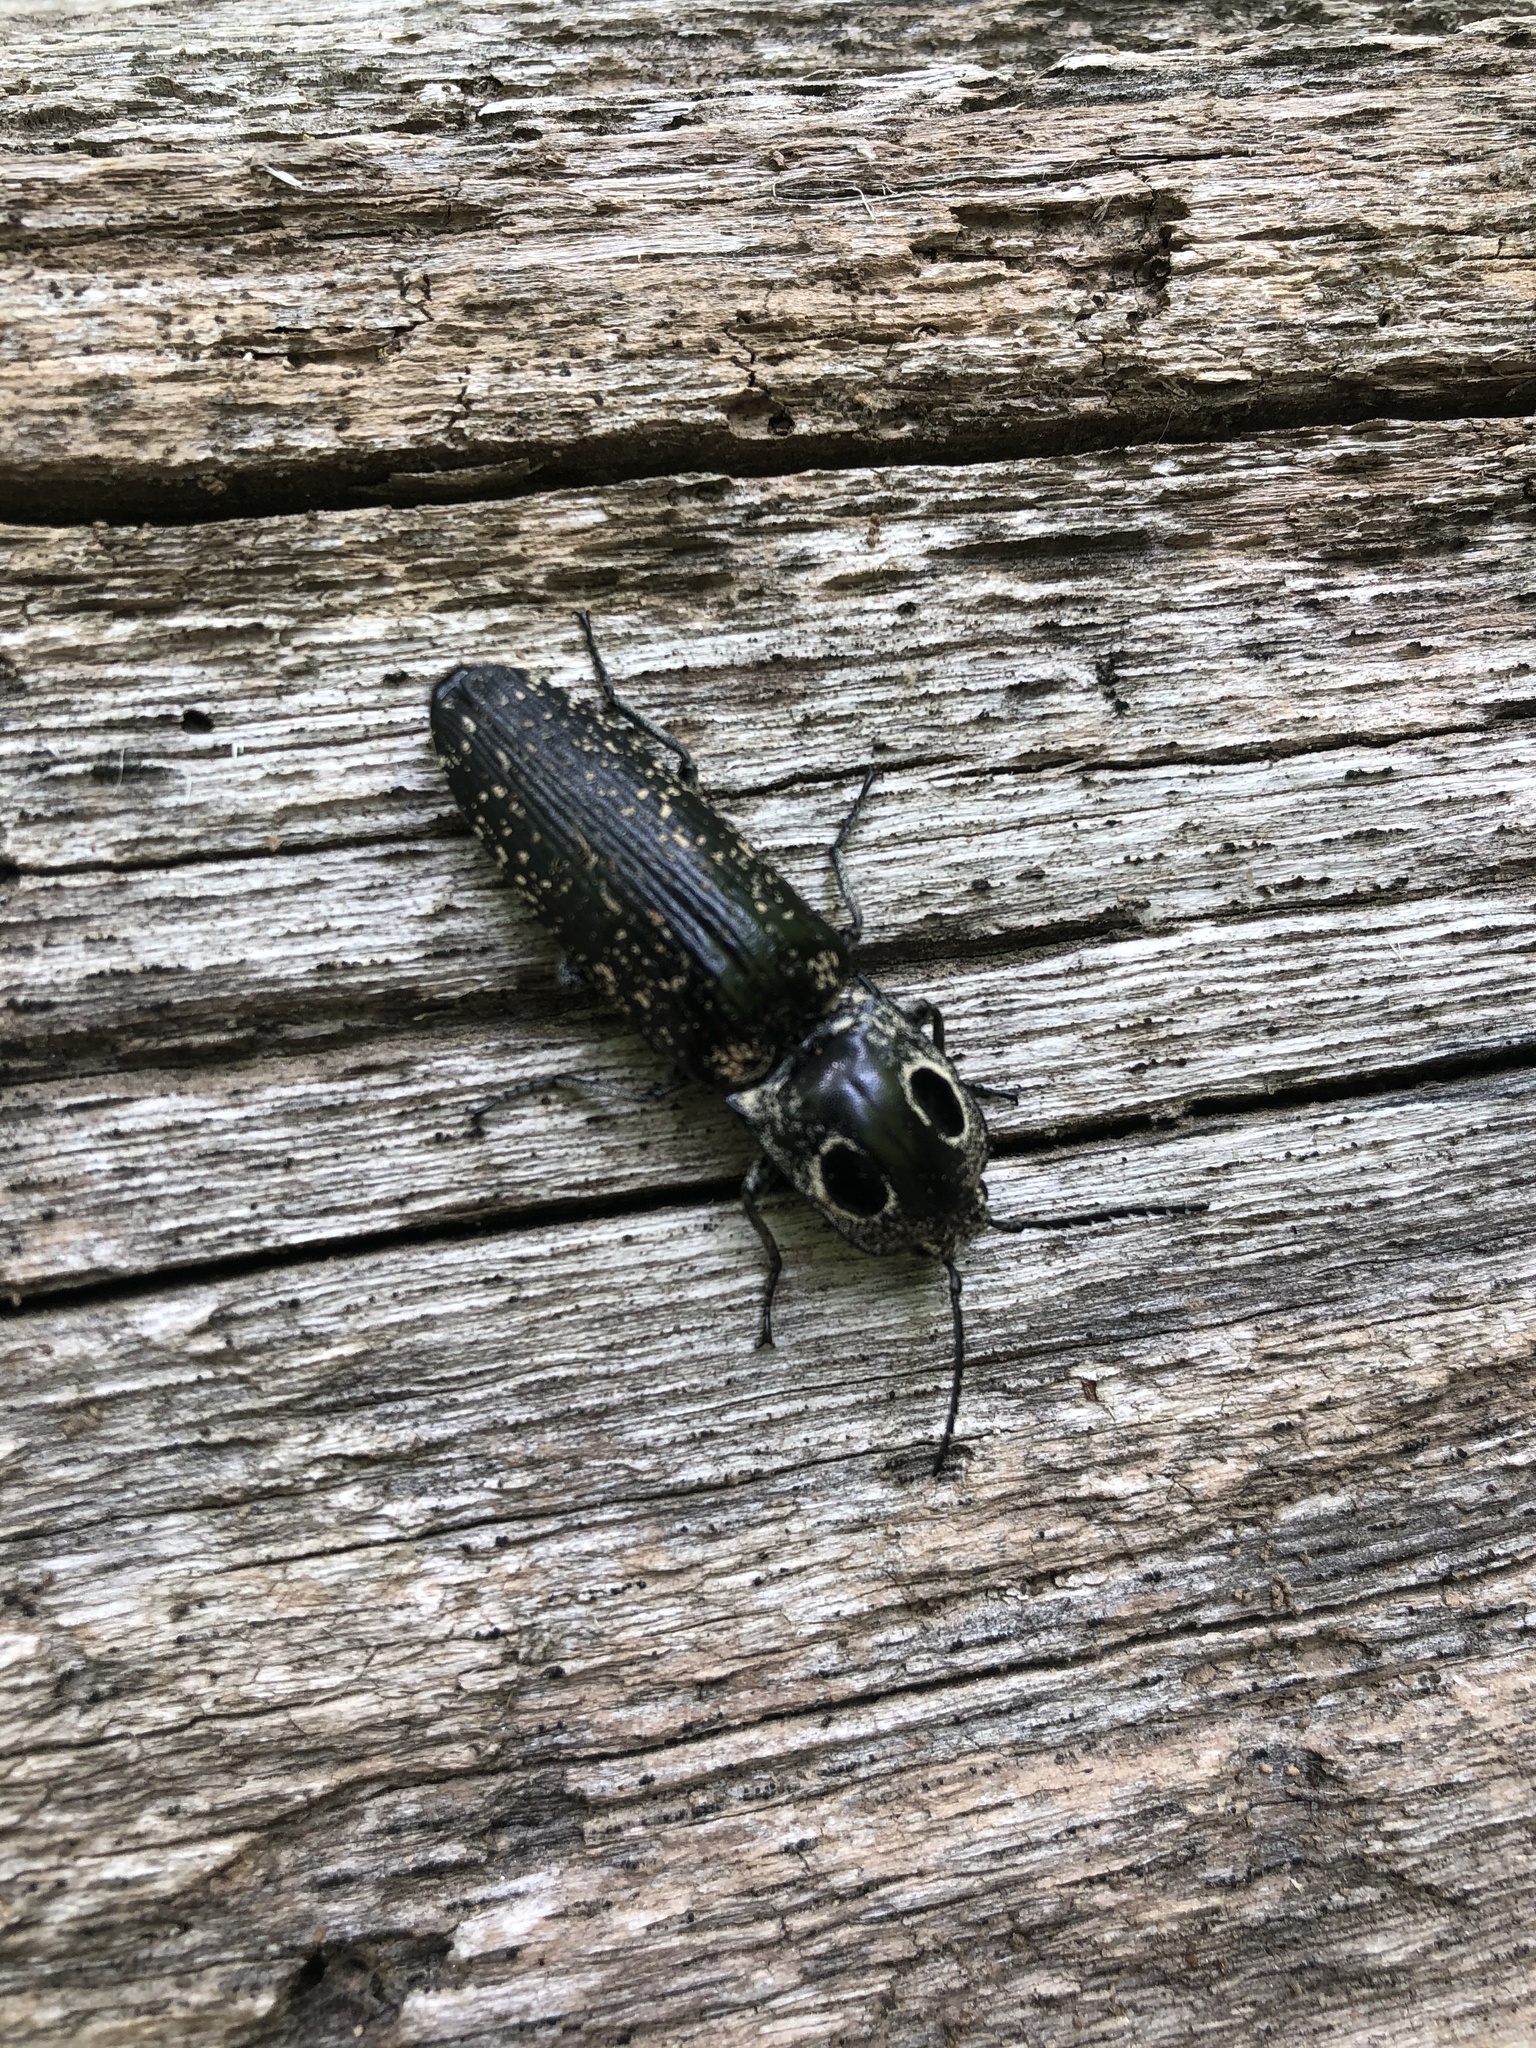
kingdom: Animalia
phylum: Arthropoda
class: Insecta
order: Coleoptera
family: Elateridae
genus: Alaus
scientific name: Alaus oculatus
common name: Eastern eyed click beetle
